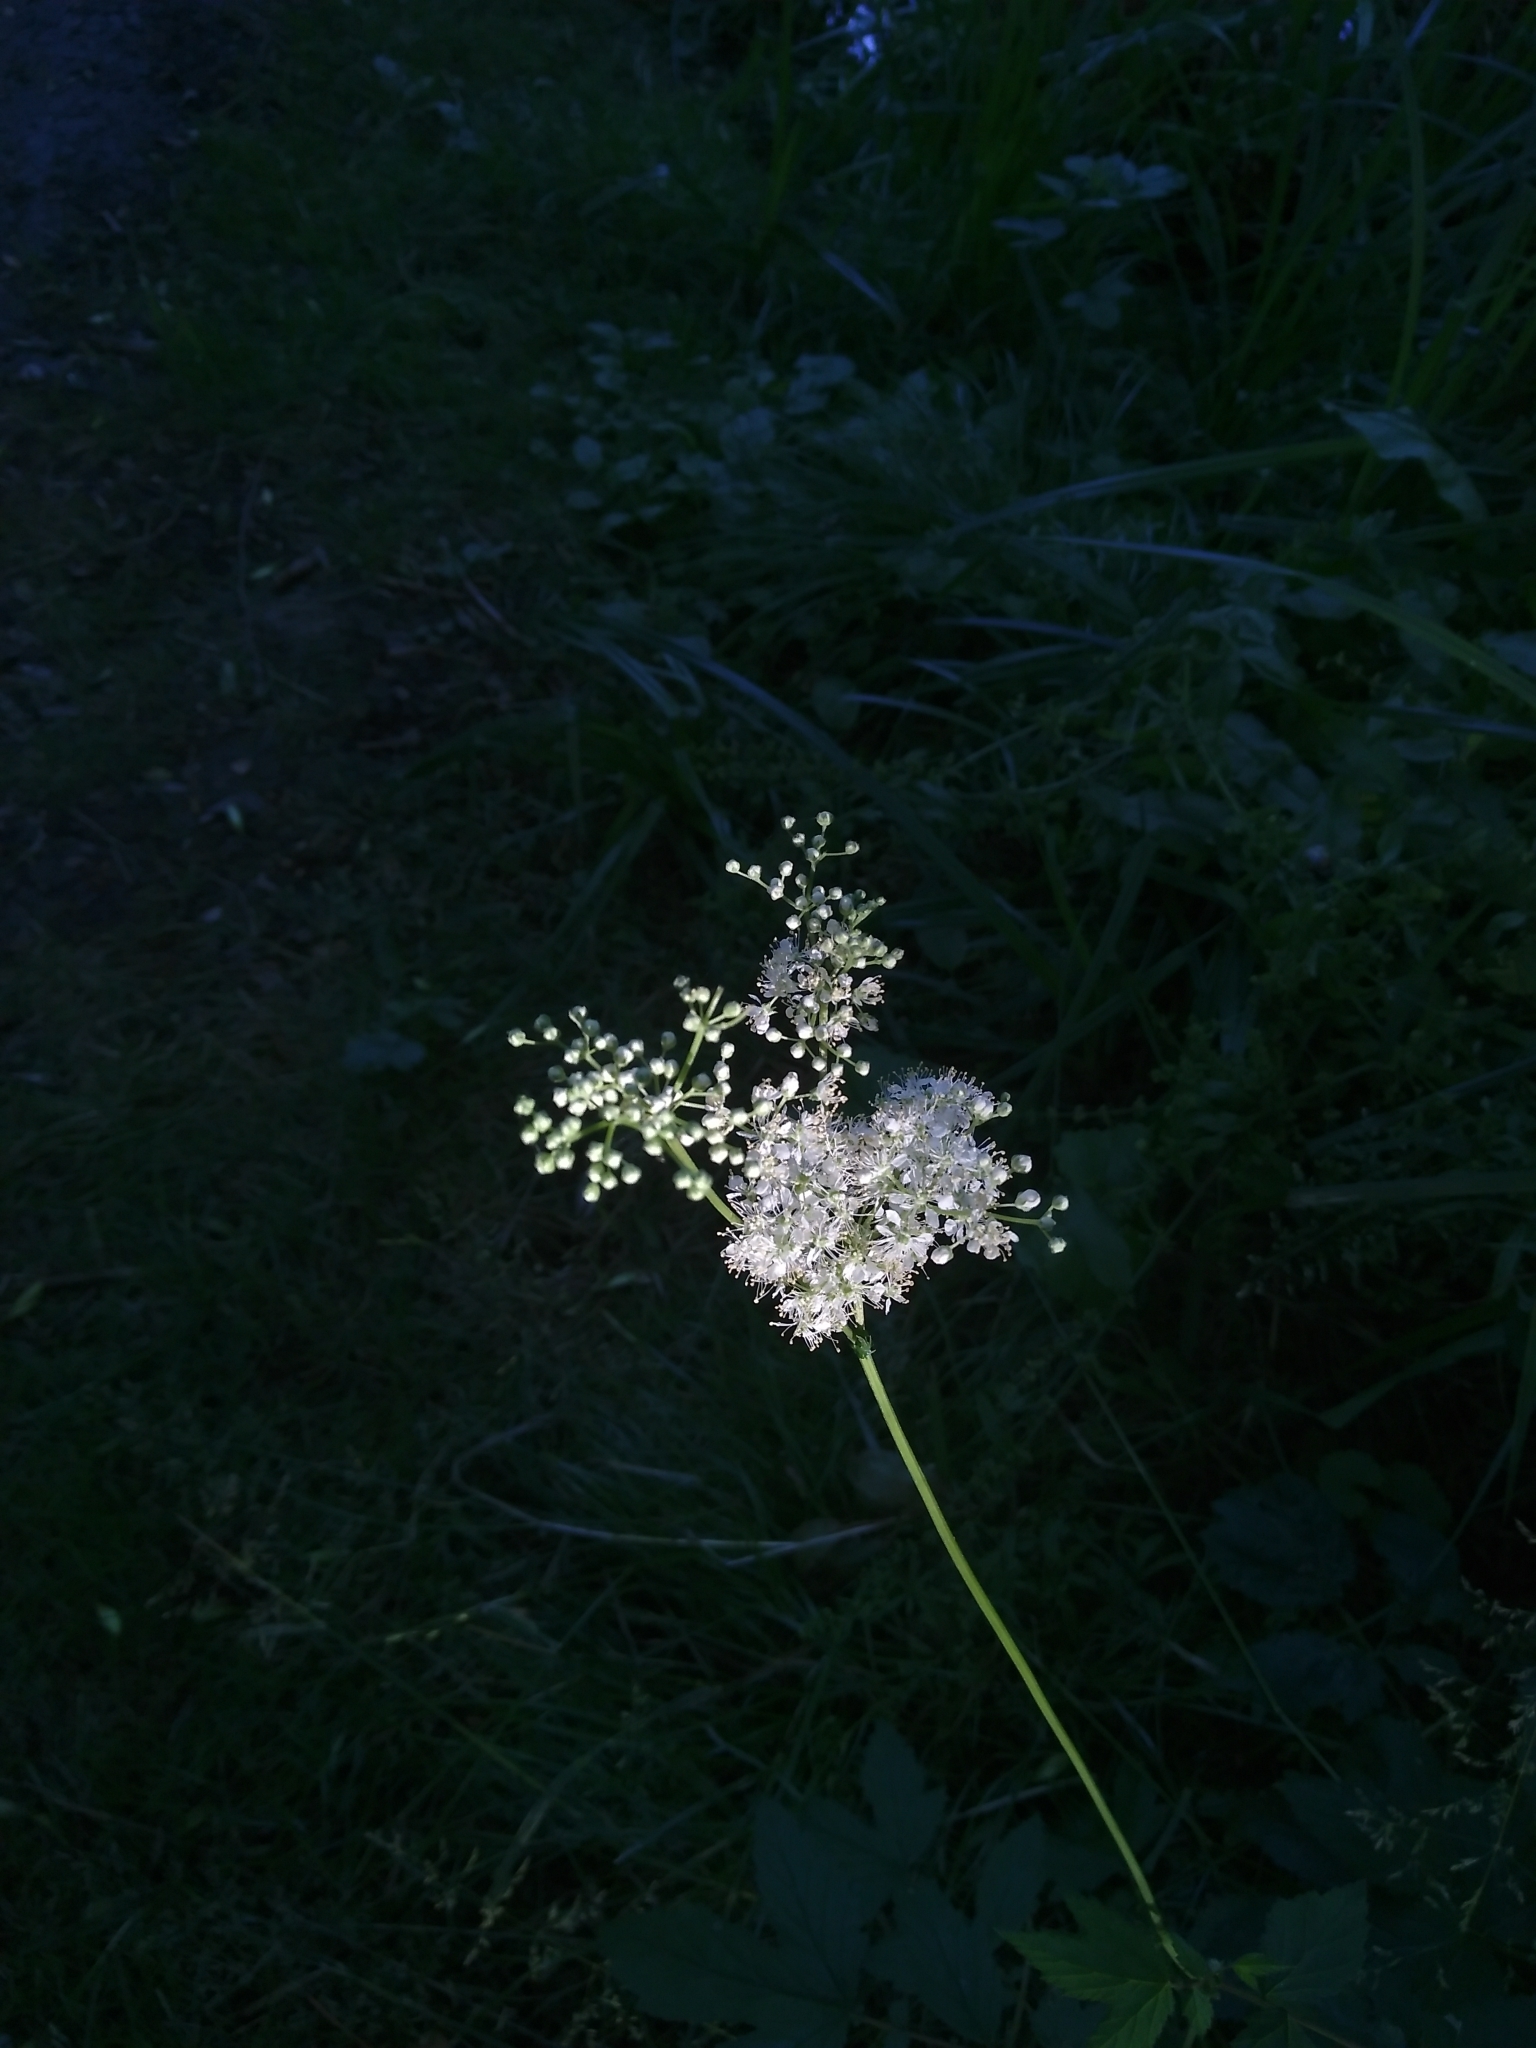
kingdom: Plantae
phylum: Tracheophyta
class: Magnoliopsida
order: Rosales
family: Rosaceae
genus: Filipendula
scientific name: Filipendula ulmaria
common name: Meadowsweet
